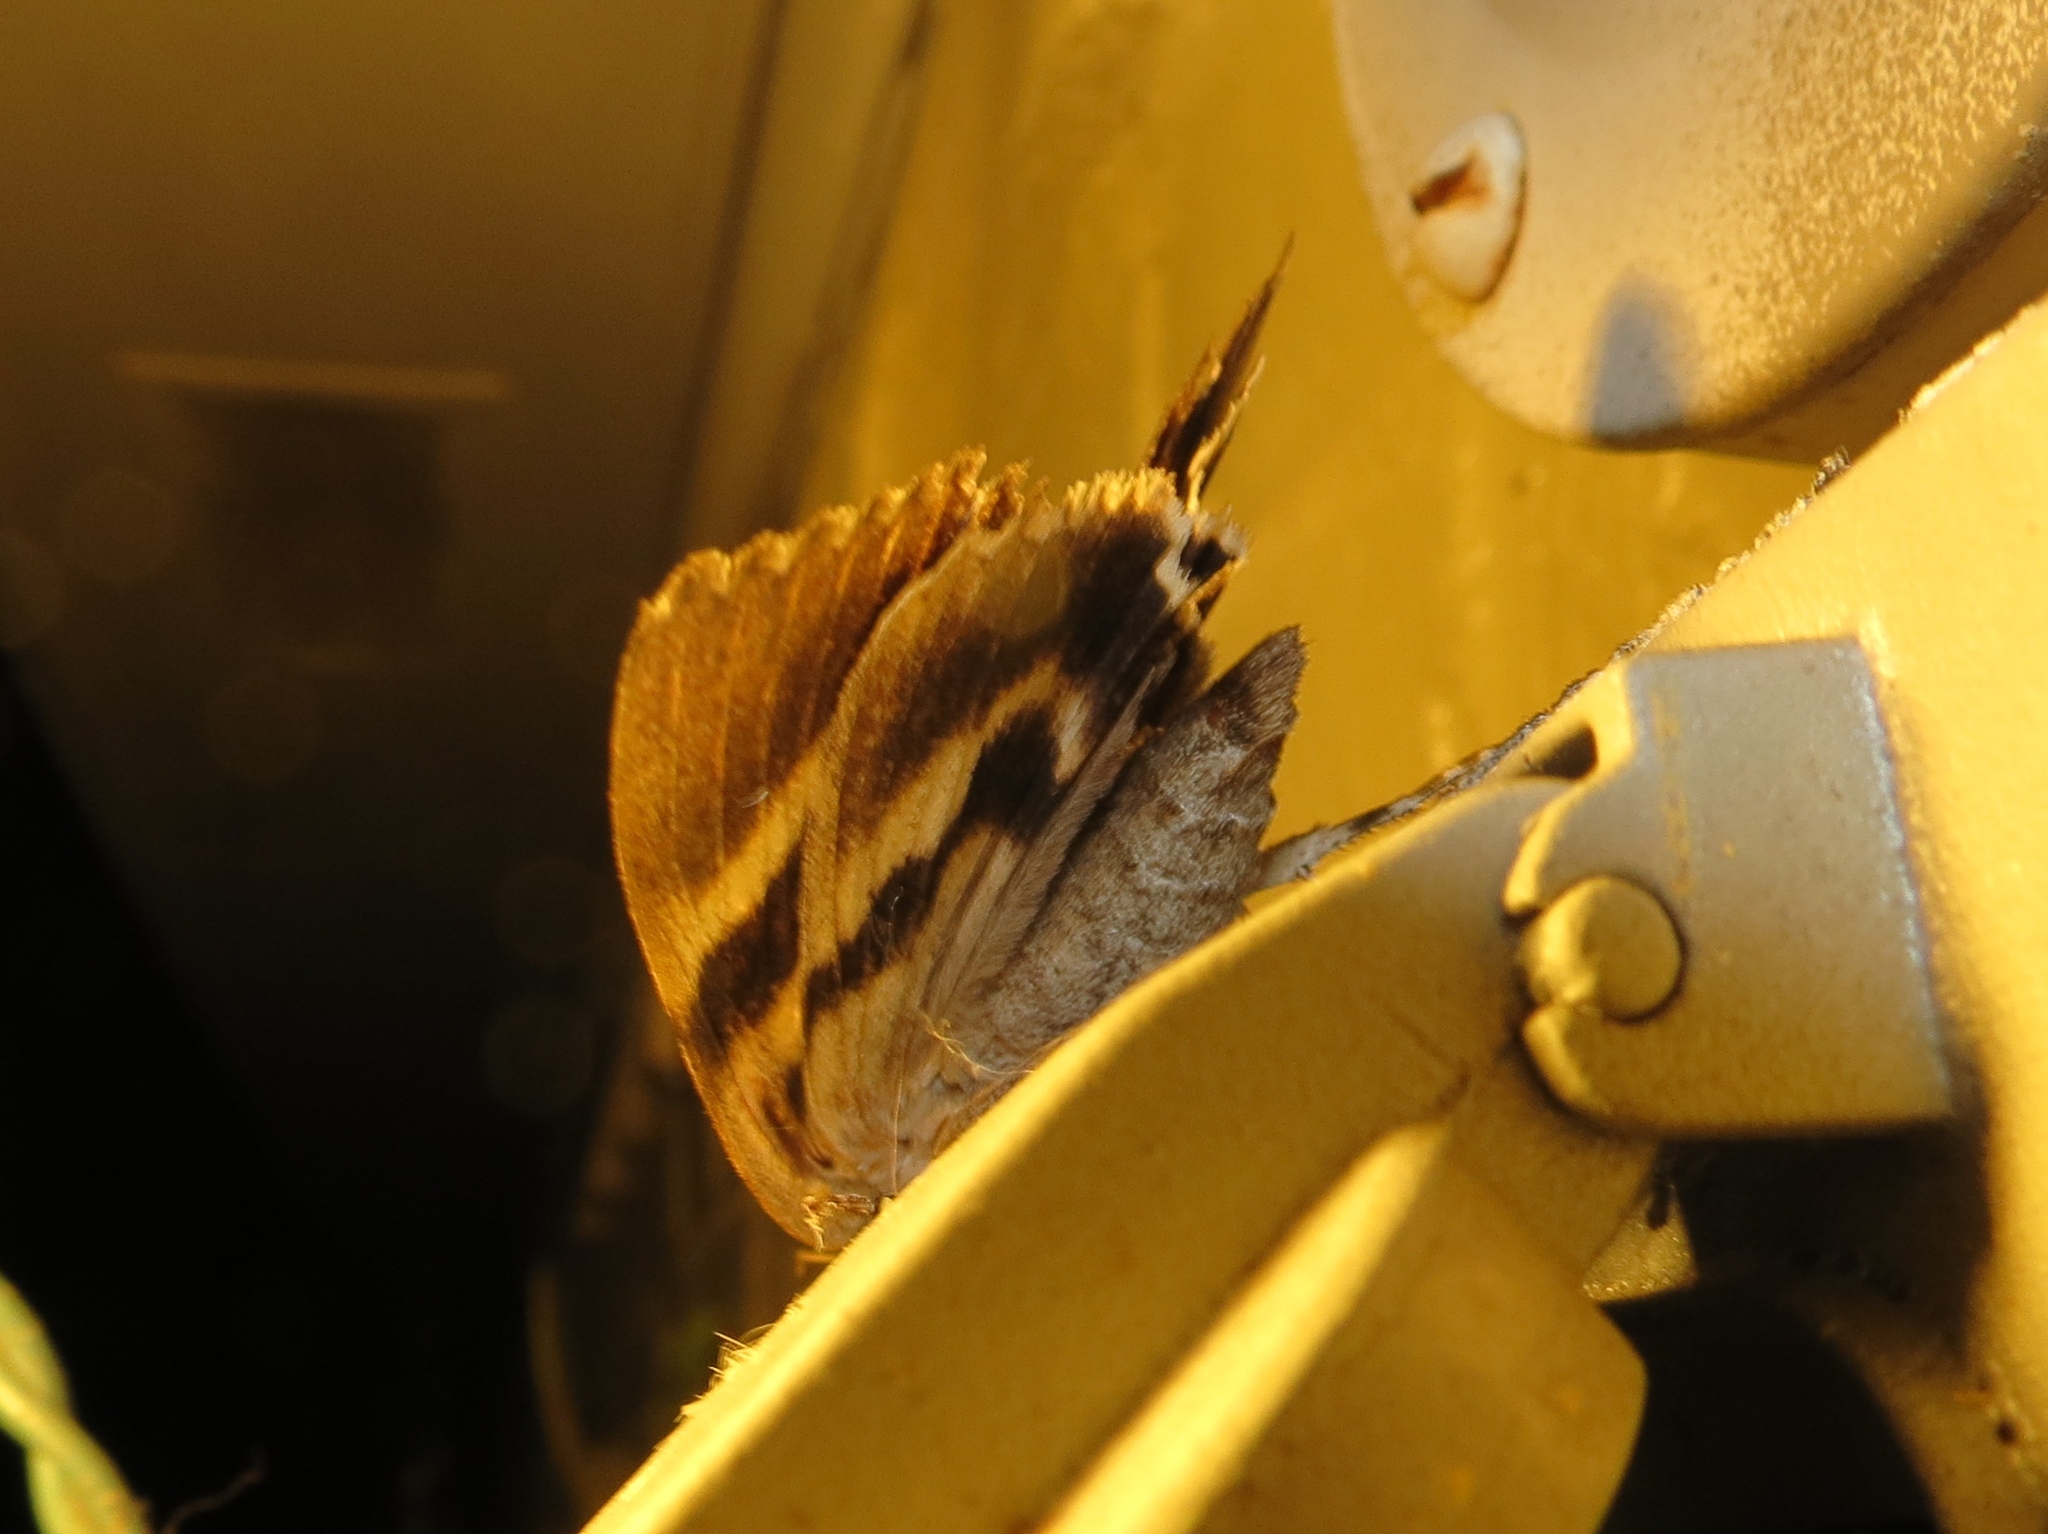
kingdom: Animalia
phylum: Arthropoda
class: Insecta
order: Lepidoptera
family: Erebidae
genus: Catocala
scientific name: Catocala agrippina
